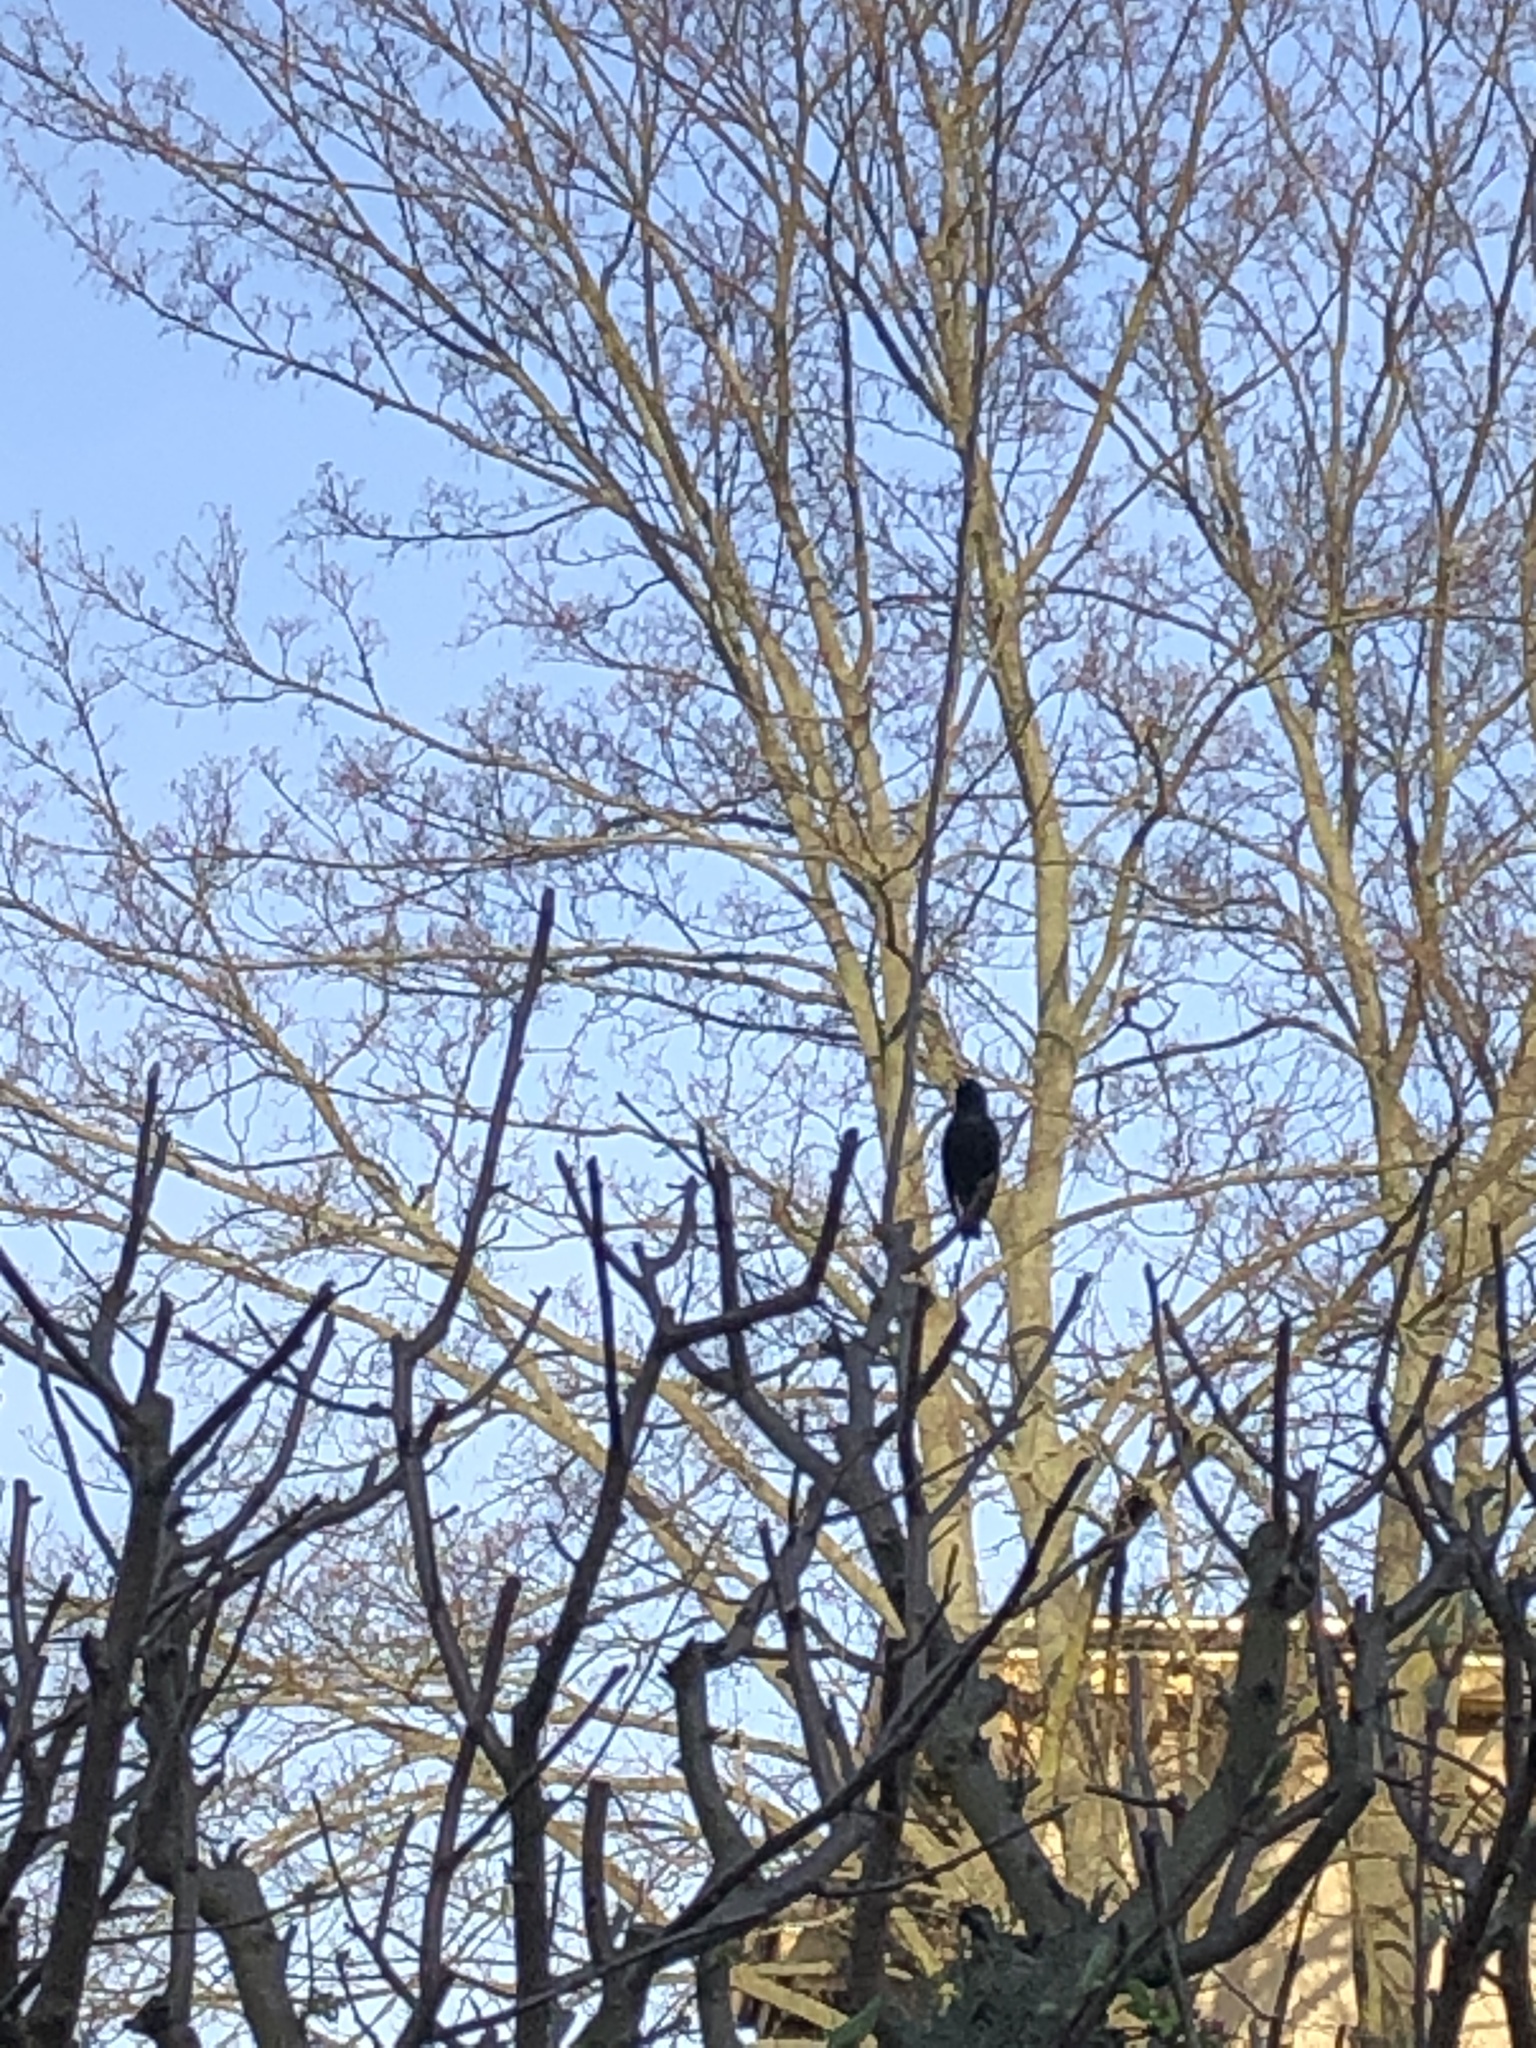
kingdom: Animalia
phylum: Chordata
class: Aves
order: Passeriformes
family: Sturnidae
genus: Sturnus
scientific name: Sturnus vulgaris
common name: Common starling
